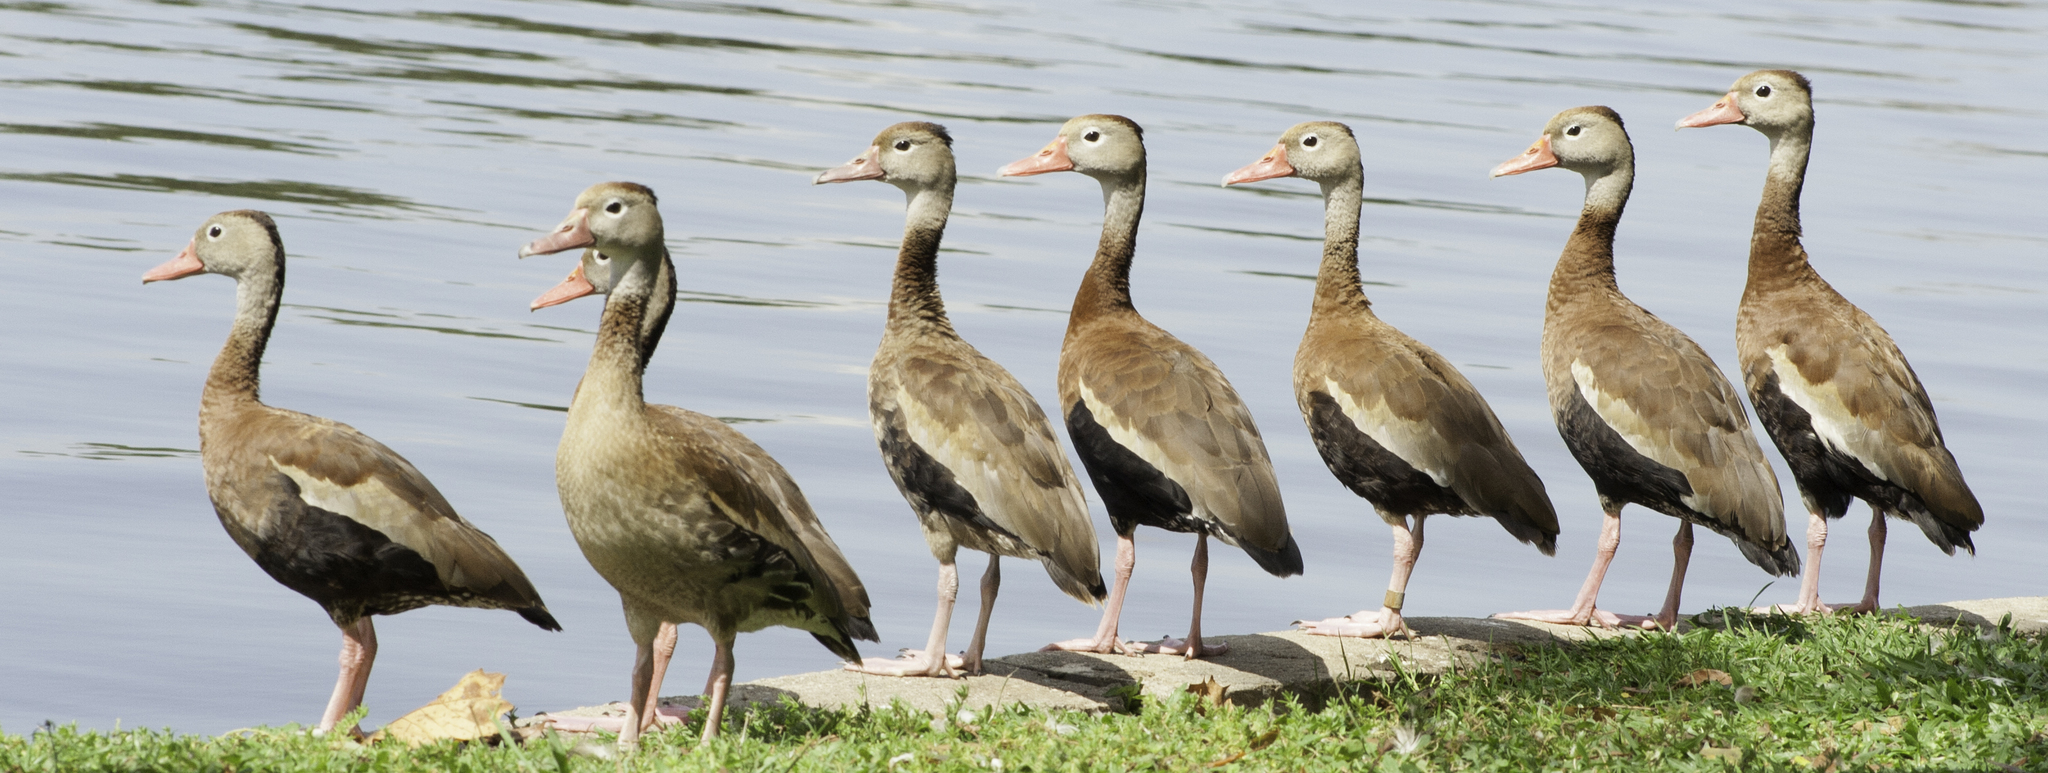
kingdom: Animalia
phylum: Chordata
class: Aves
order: Anseriformes
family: Anatidae
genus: Dendrocygna
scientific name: Dendrocygna autumnalis
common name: Black-bellied whistling duck
